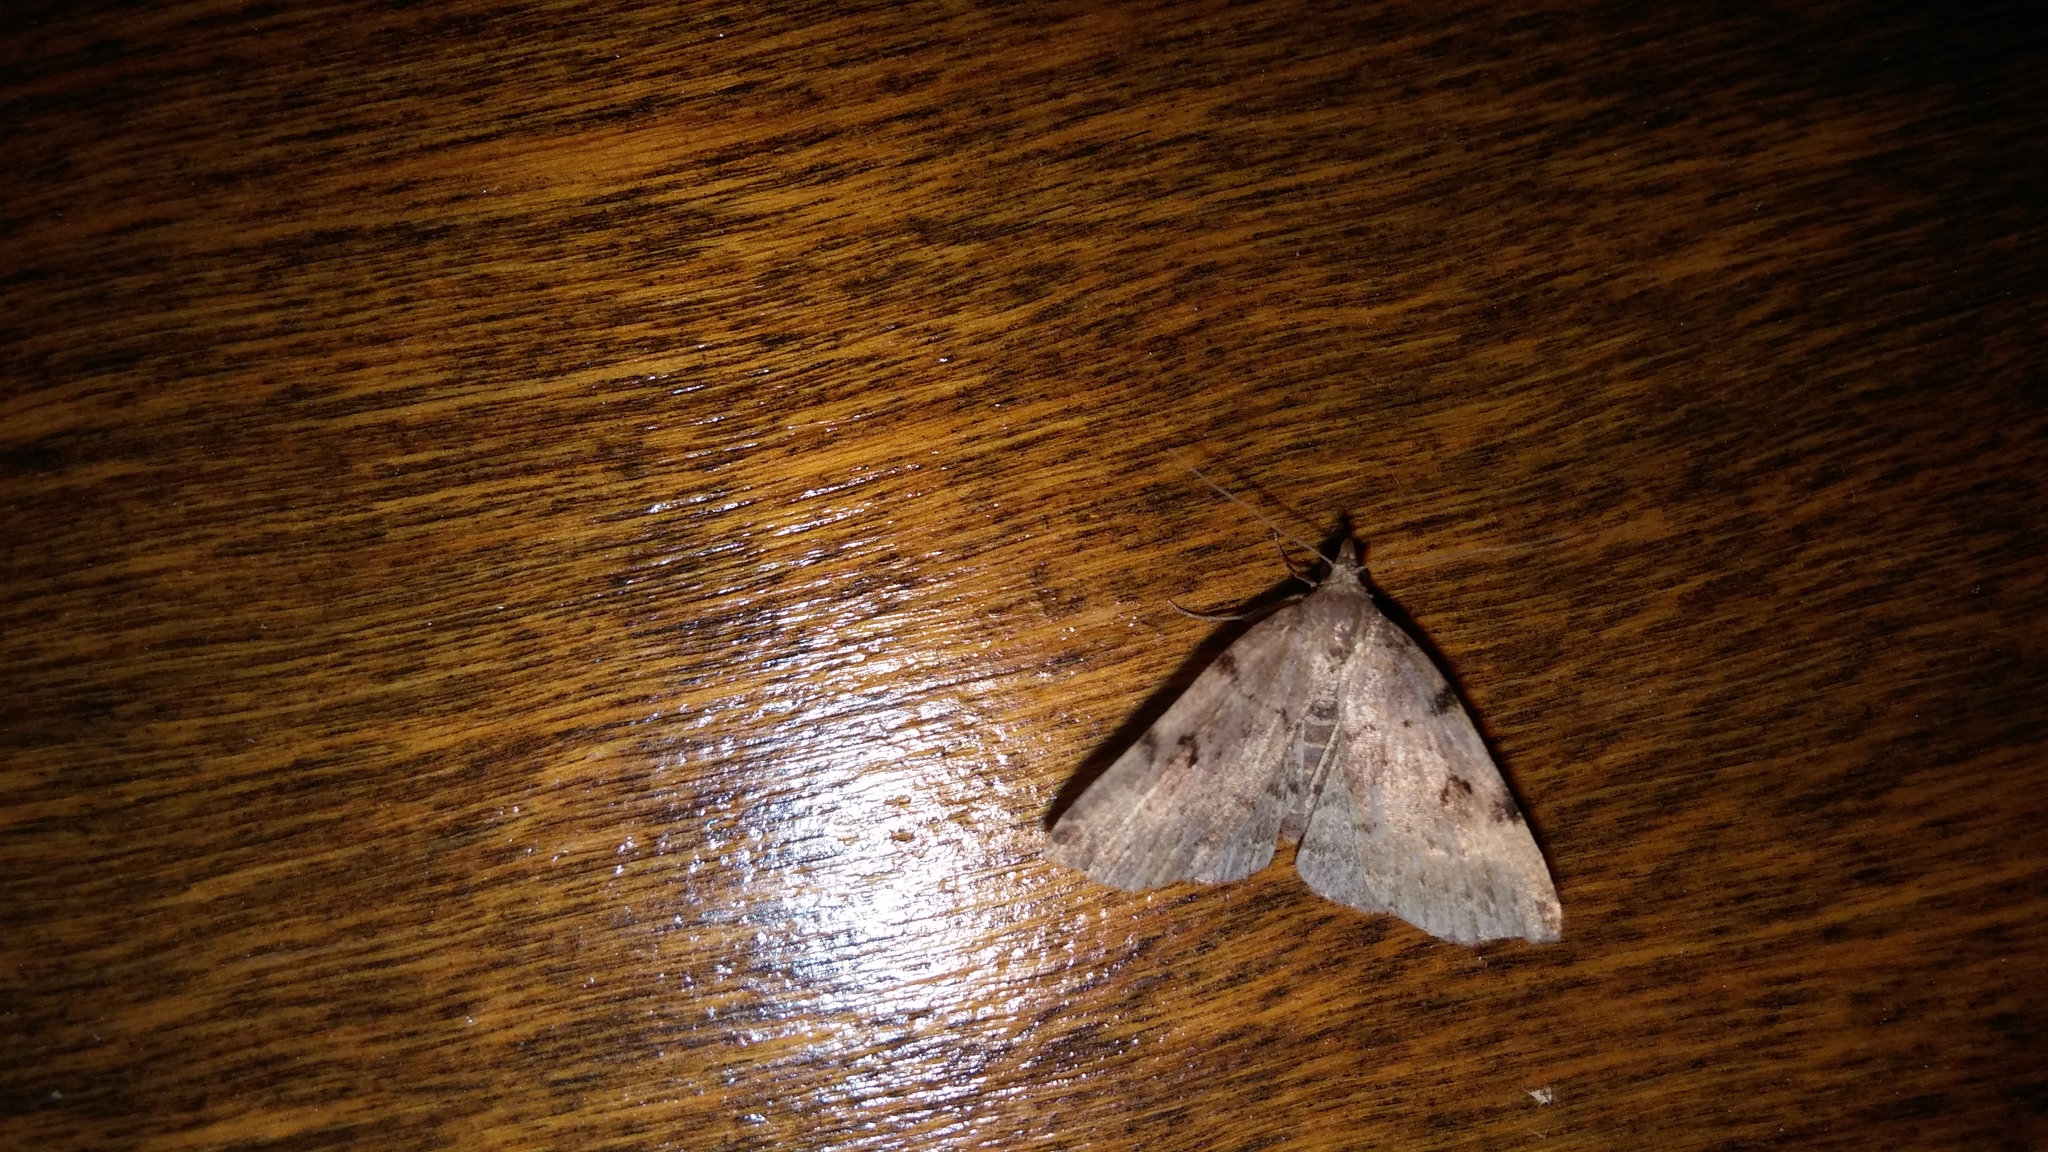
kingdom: Animalia
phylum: Arthropoda
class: Insecta
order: Lepidoptera
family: Erebidae
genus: Zanclognatha
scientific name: Zanclognatha lituralis
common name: Lettered fan-foot
